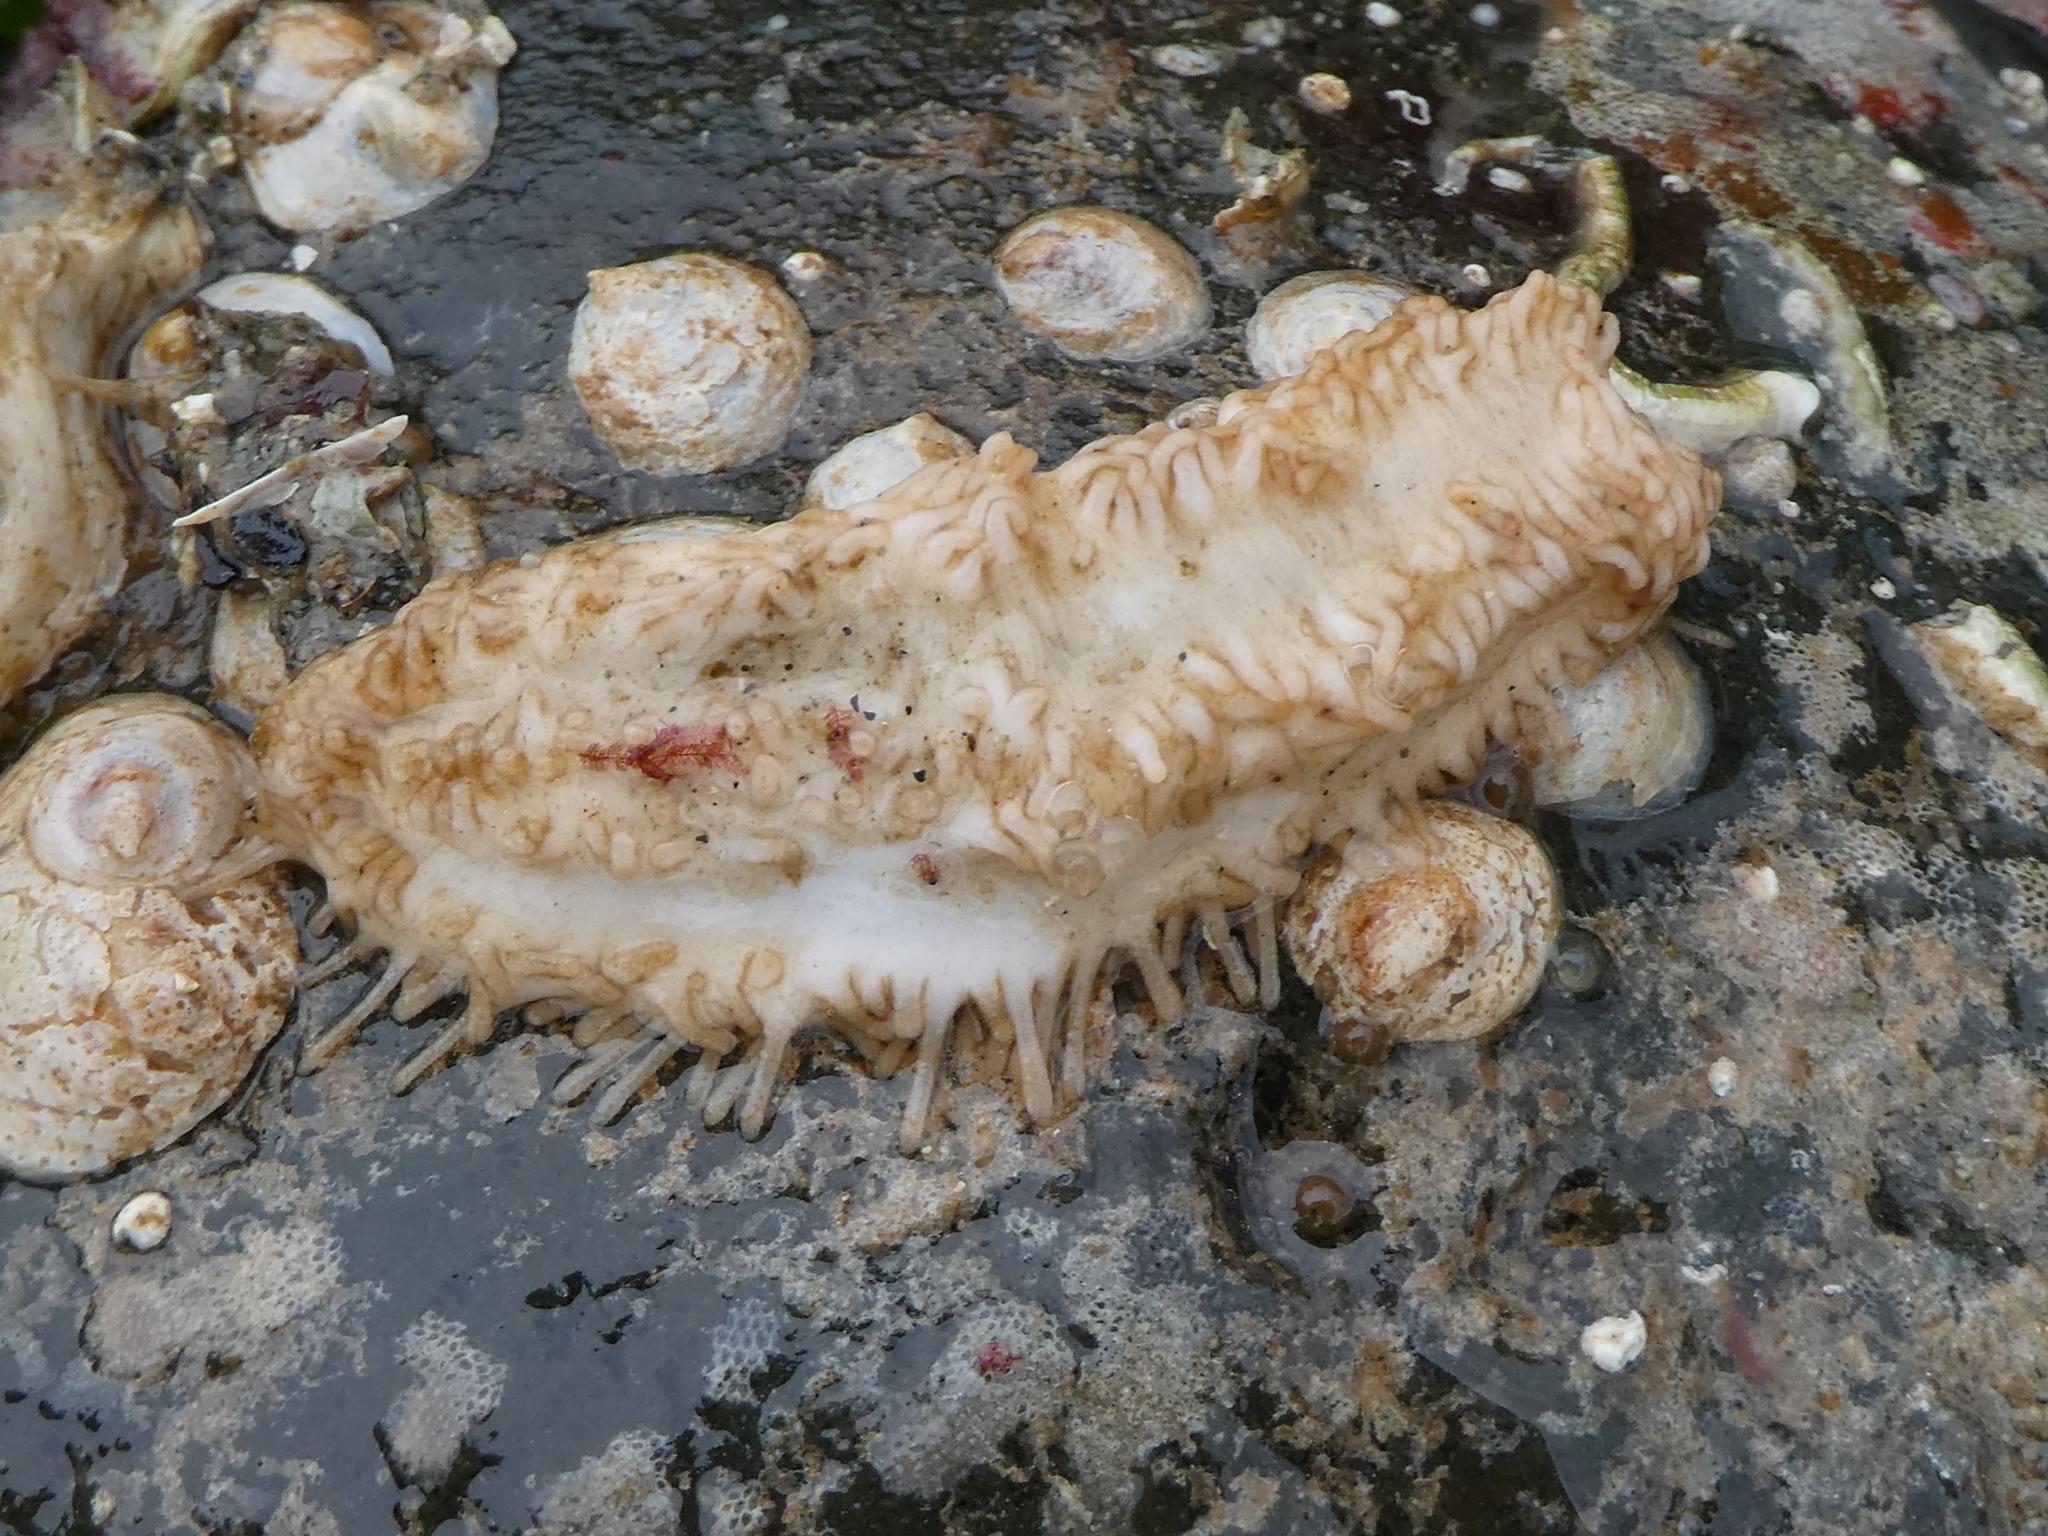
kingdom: Animalia
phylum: Echinodermata
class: Holothuroidea
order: Dendrochirotida
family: Sclerodactylidae
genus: Eupentacta
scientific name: Eupentacta quinquesemita
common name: Pentamerous sea cucumber
